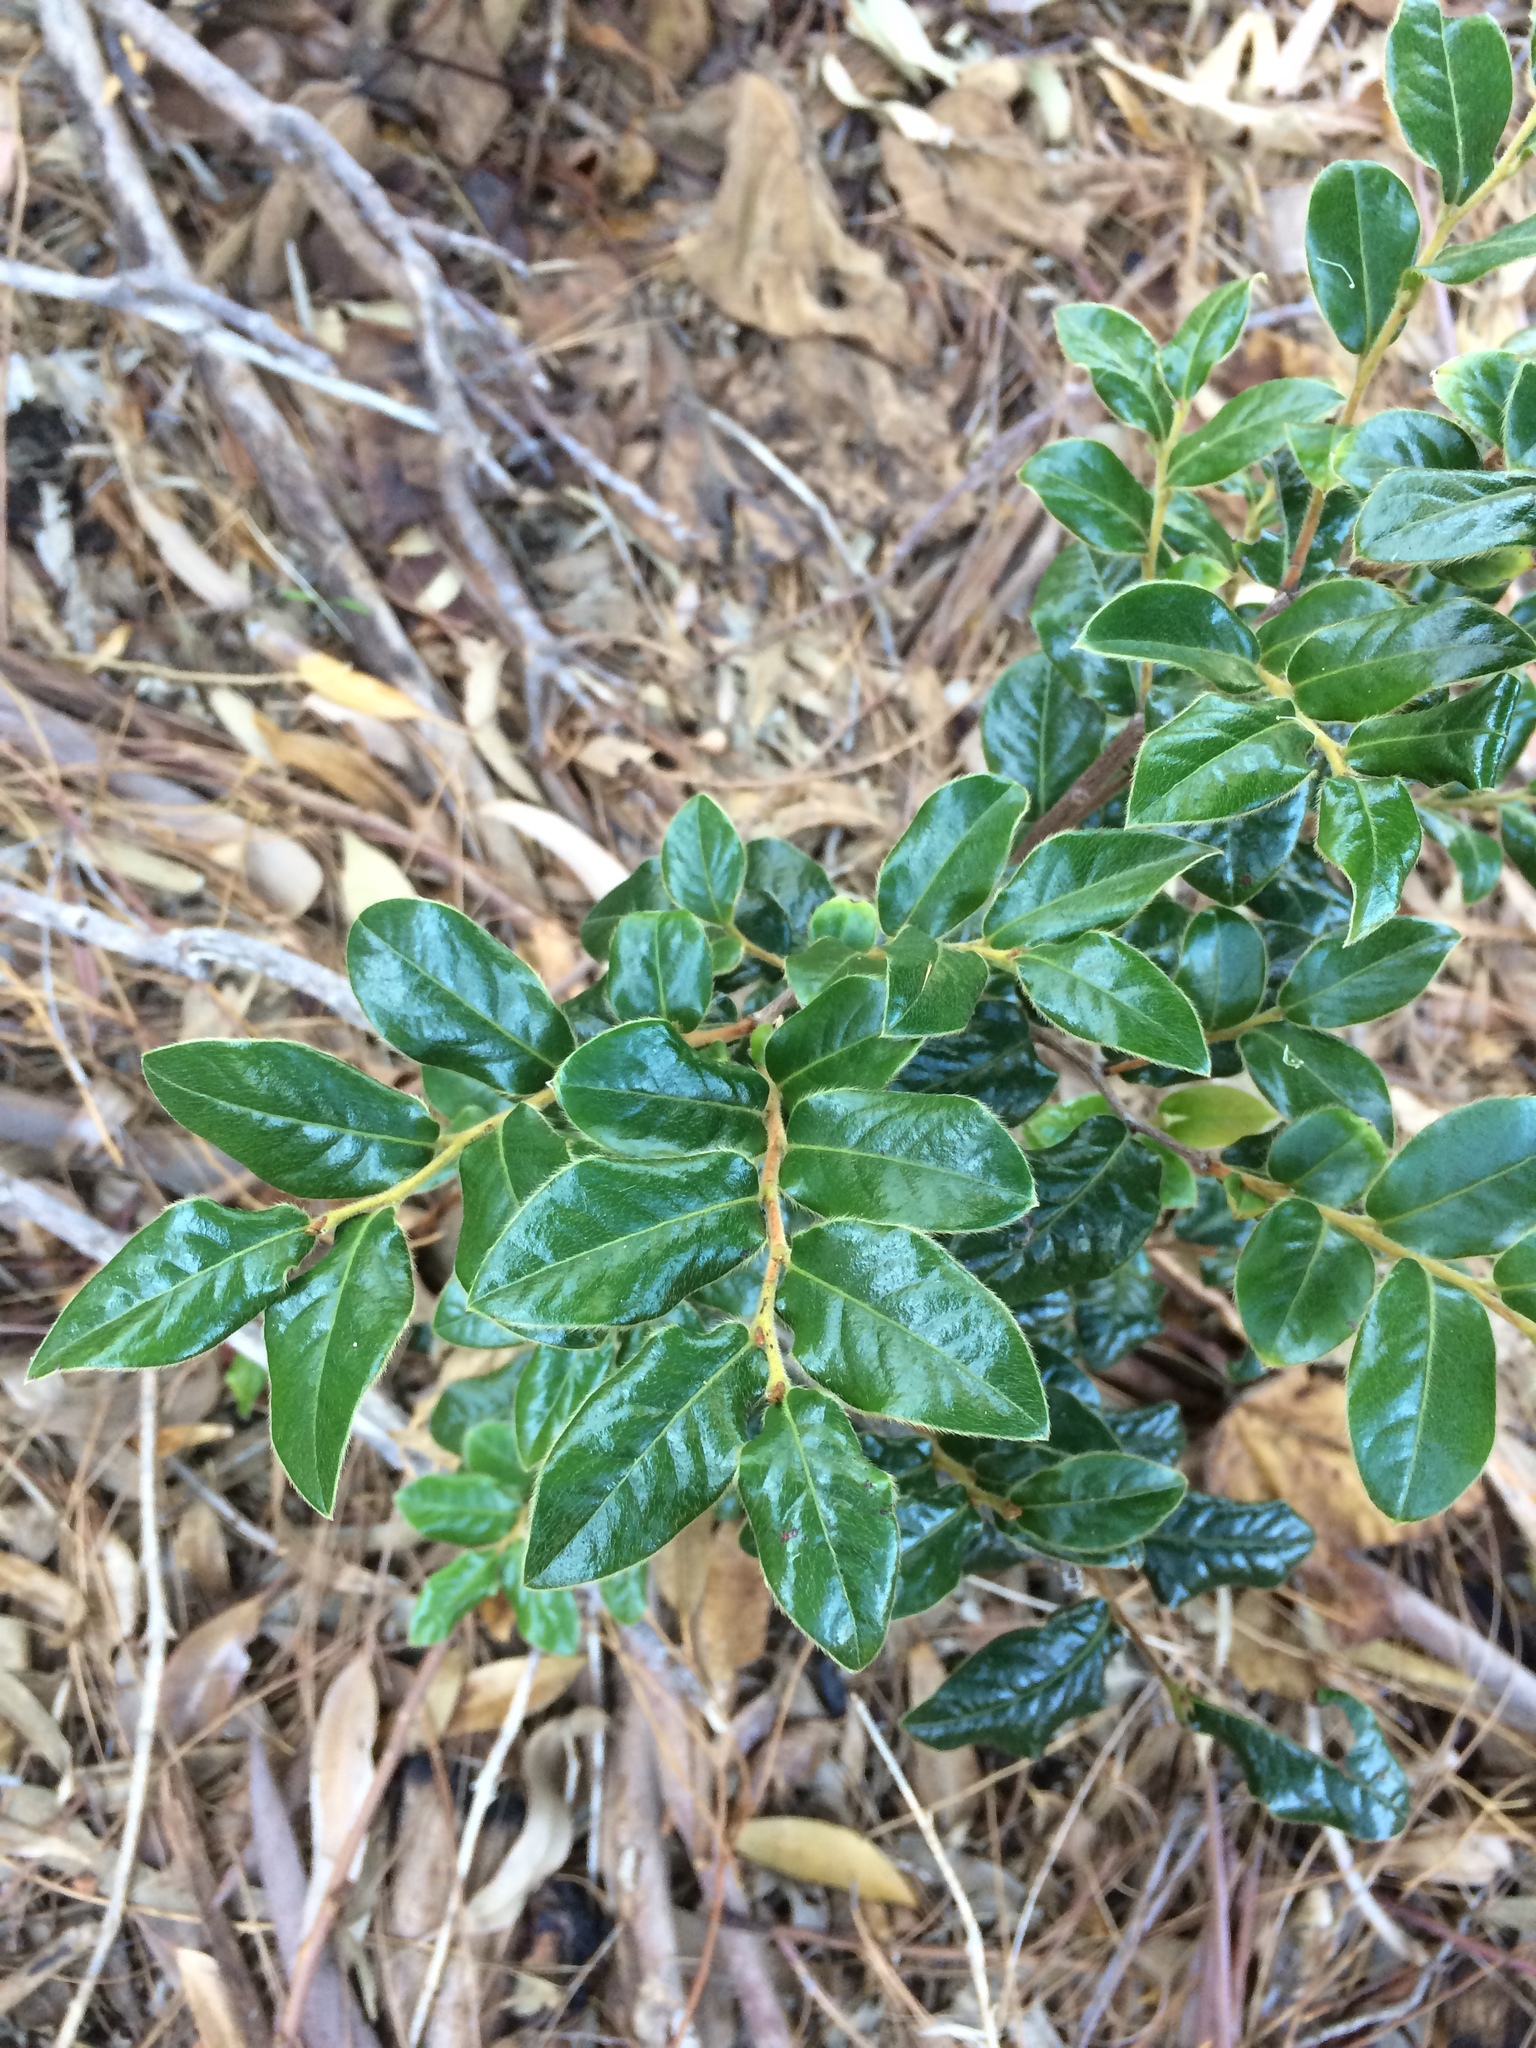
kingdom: Plantae
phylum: Tracheophyta
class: Magnoliopsida
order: Ericales
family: Ebenaceae
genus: Diospyros
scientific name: Diospyros whyteana
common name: Bladder-nut
